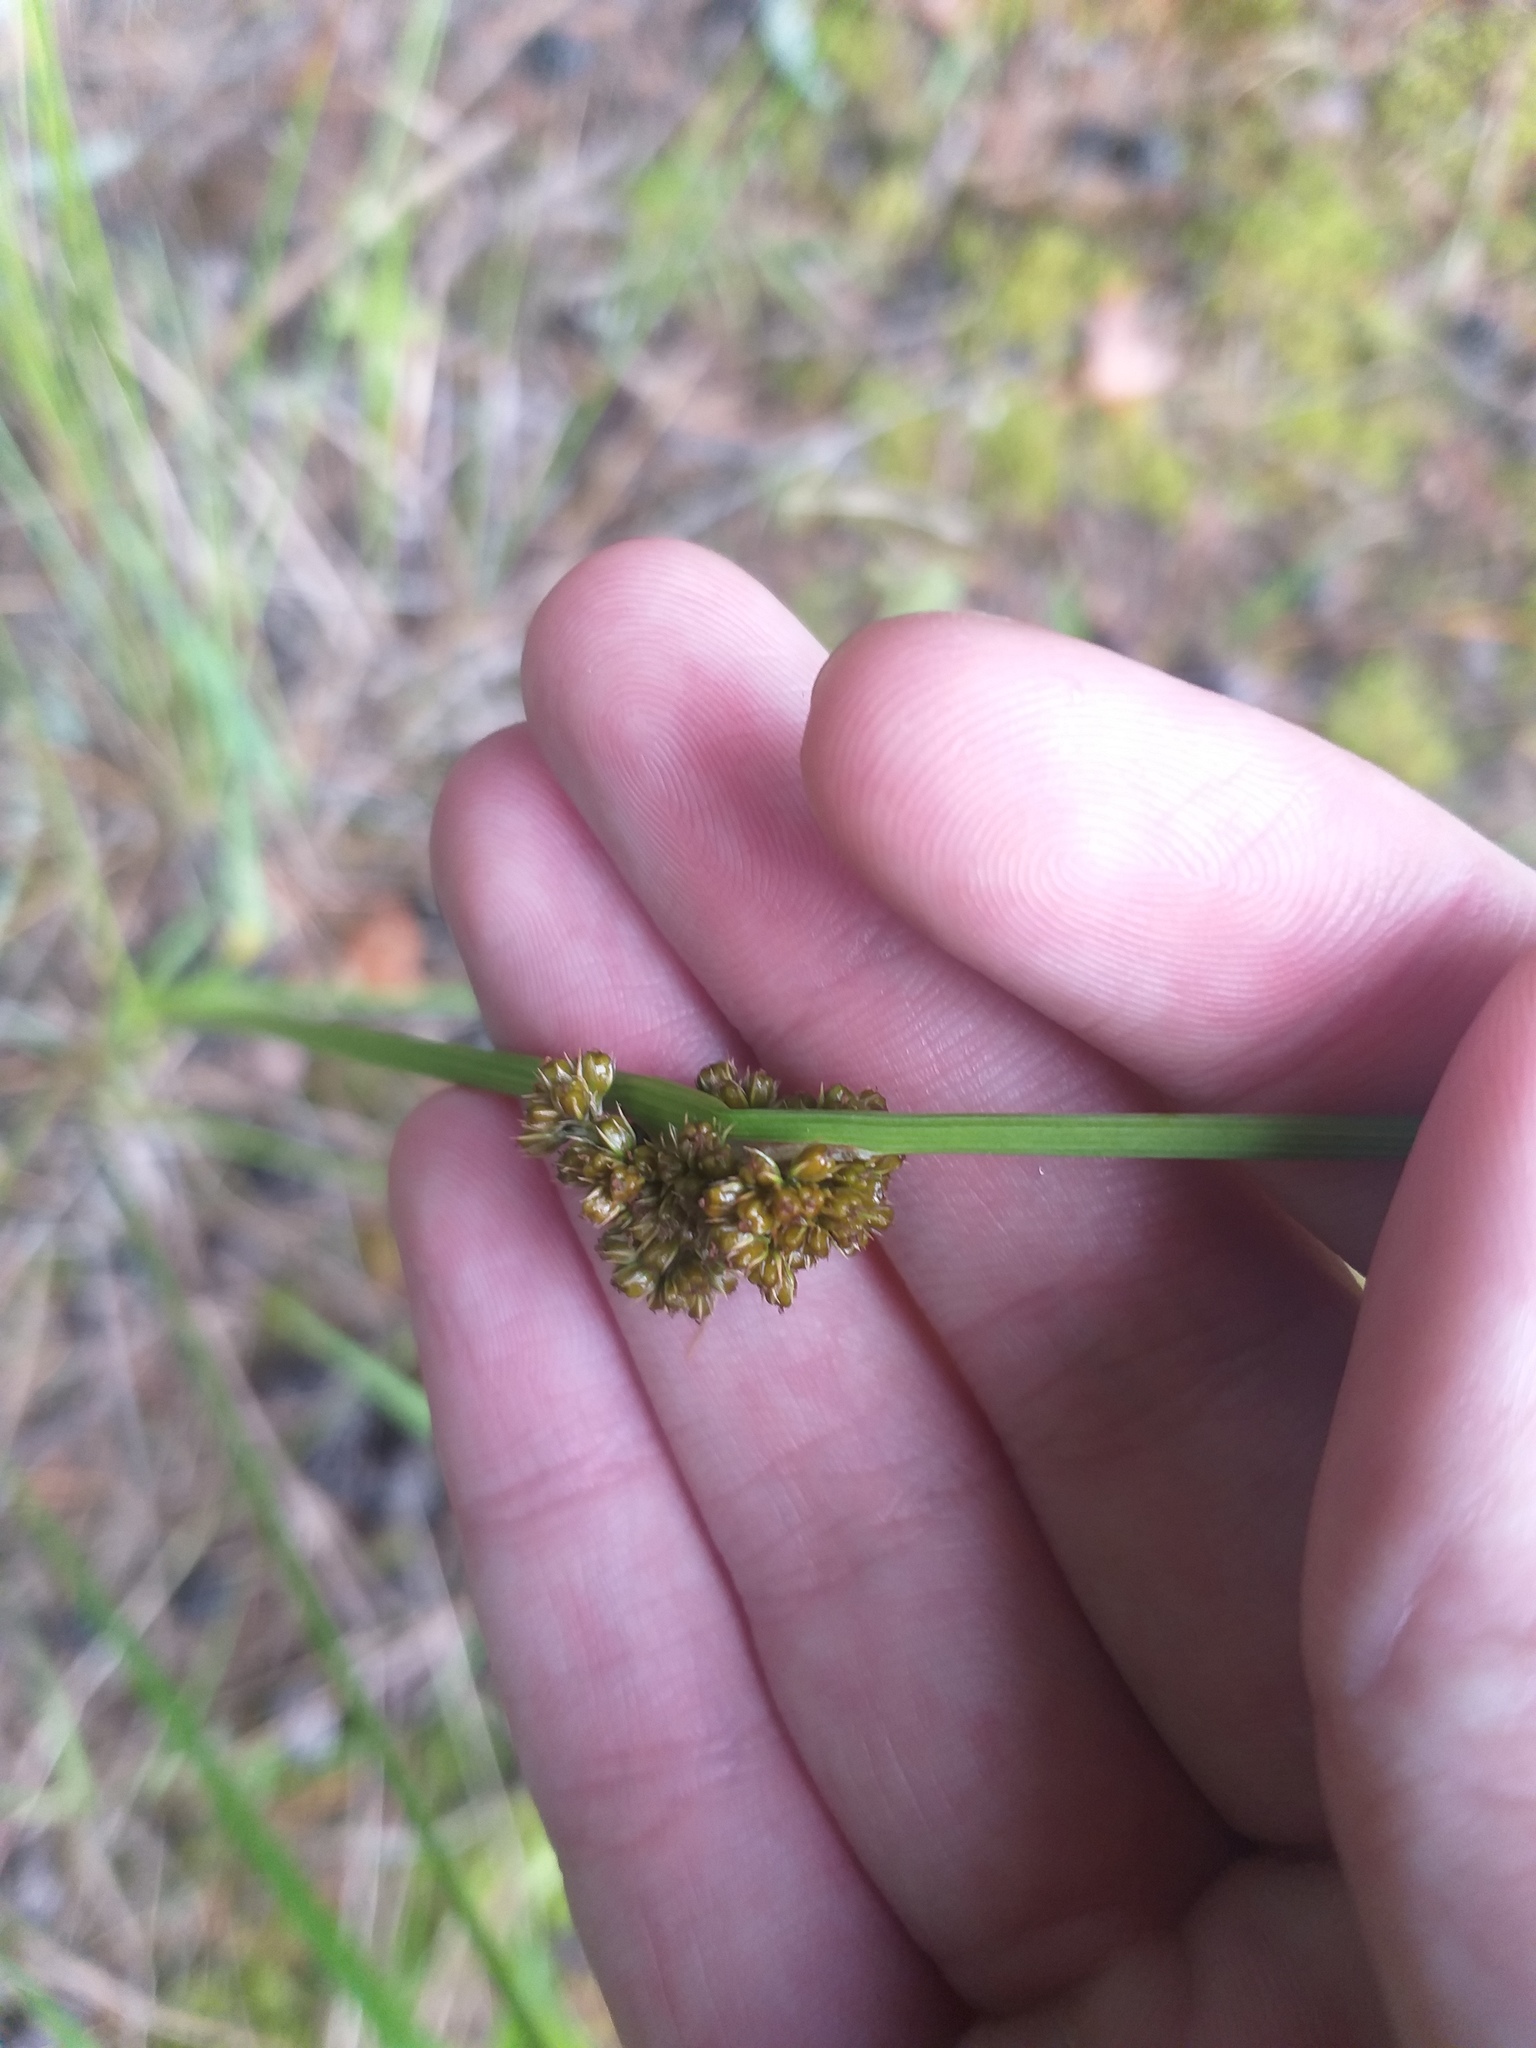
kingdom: Plantae
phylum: Tracheophyta
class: Liliopsida
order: Poales
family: Juncaceae
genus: Juncus
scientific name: Juncus conglomeratus
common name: Compact rush
